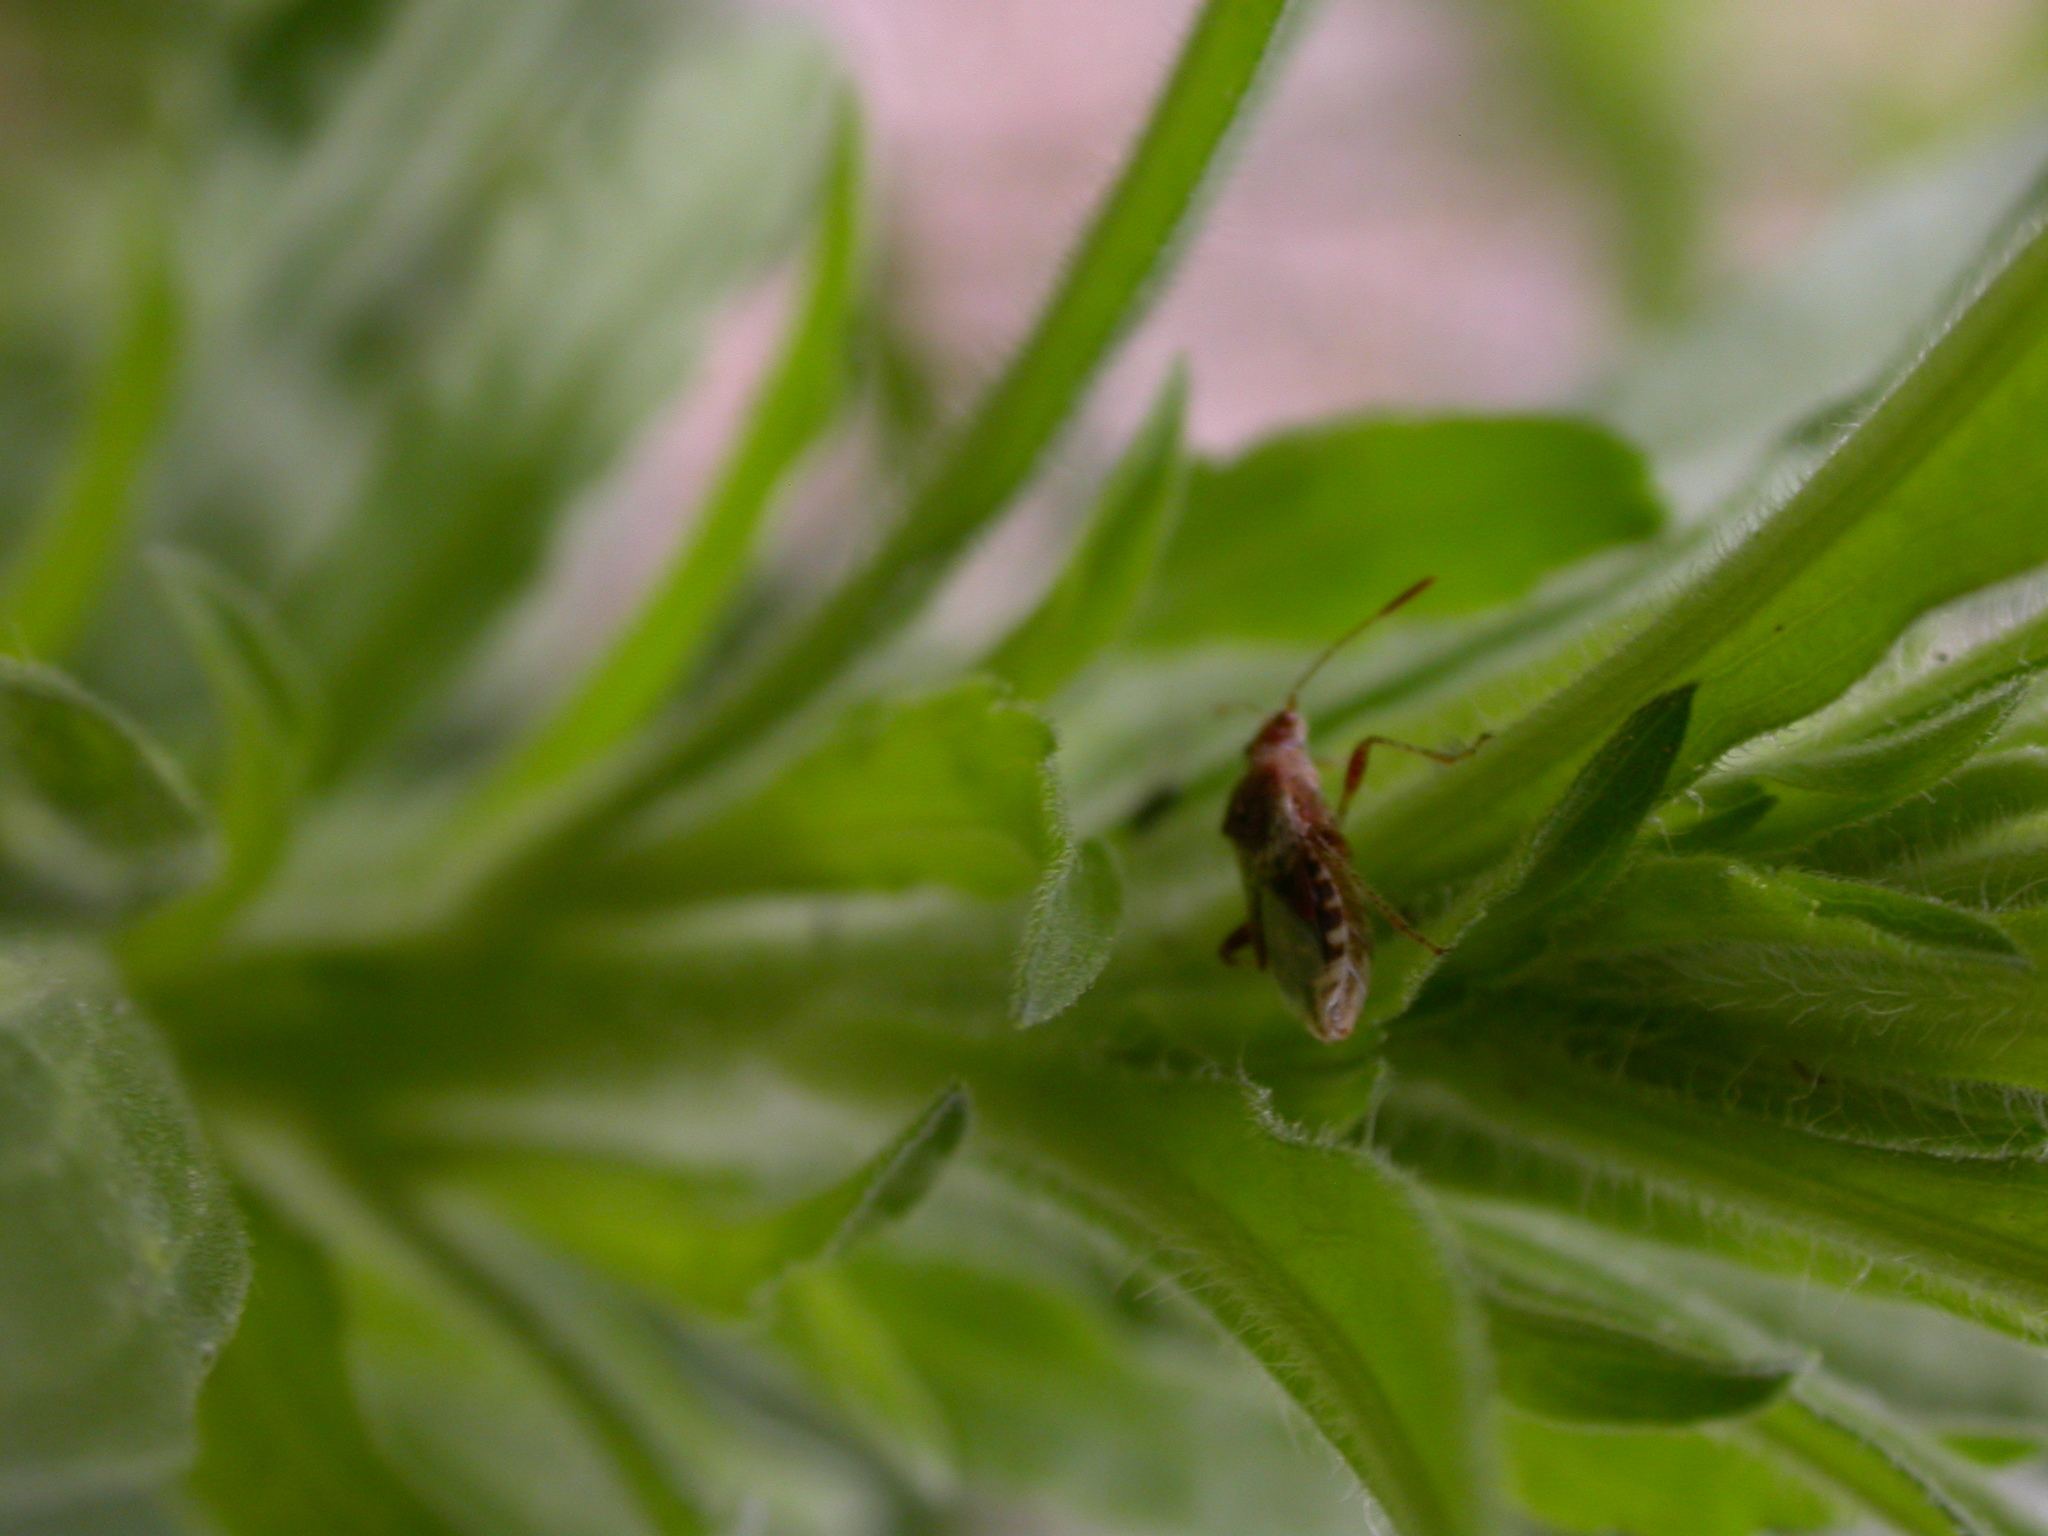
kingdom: Animalia
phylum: Arthropoda
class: Insecta
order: Hemiptera
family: Rhopalidae
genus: Rhopalus
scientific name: Rhopalus subrufus
